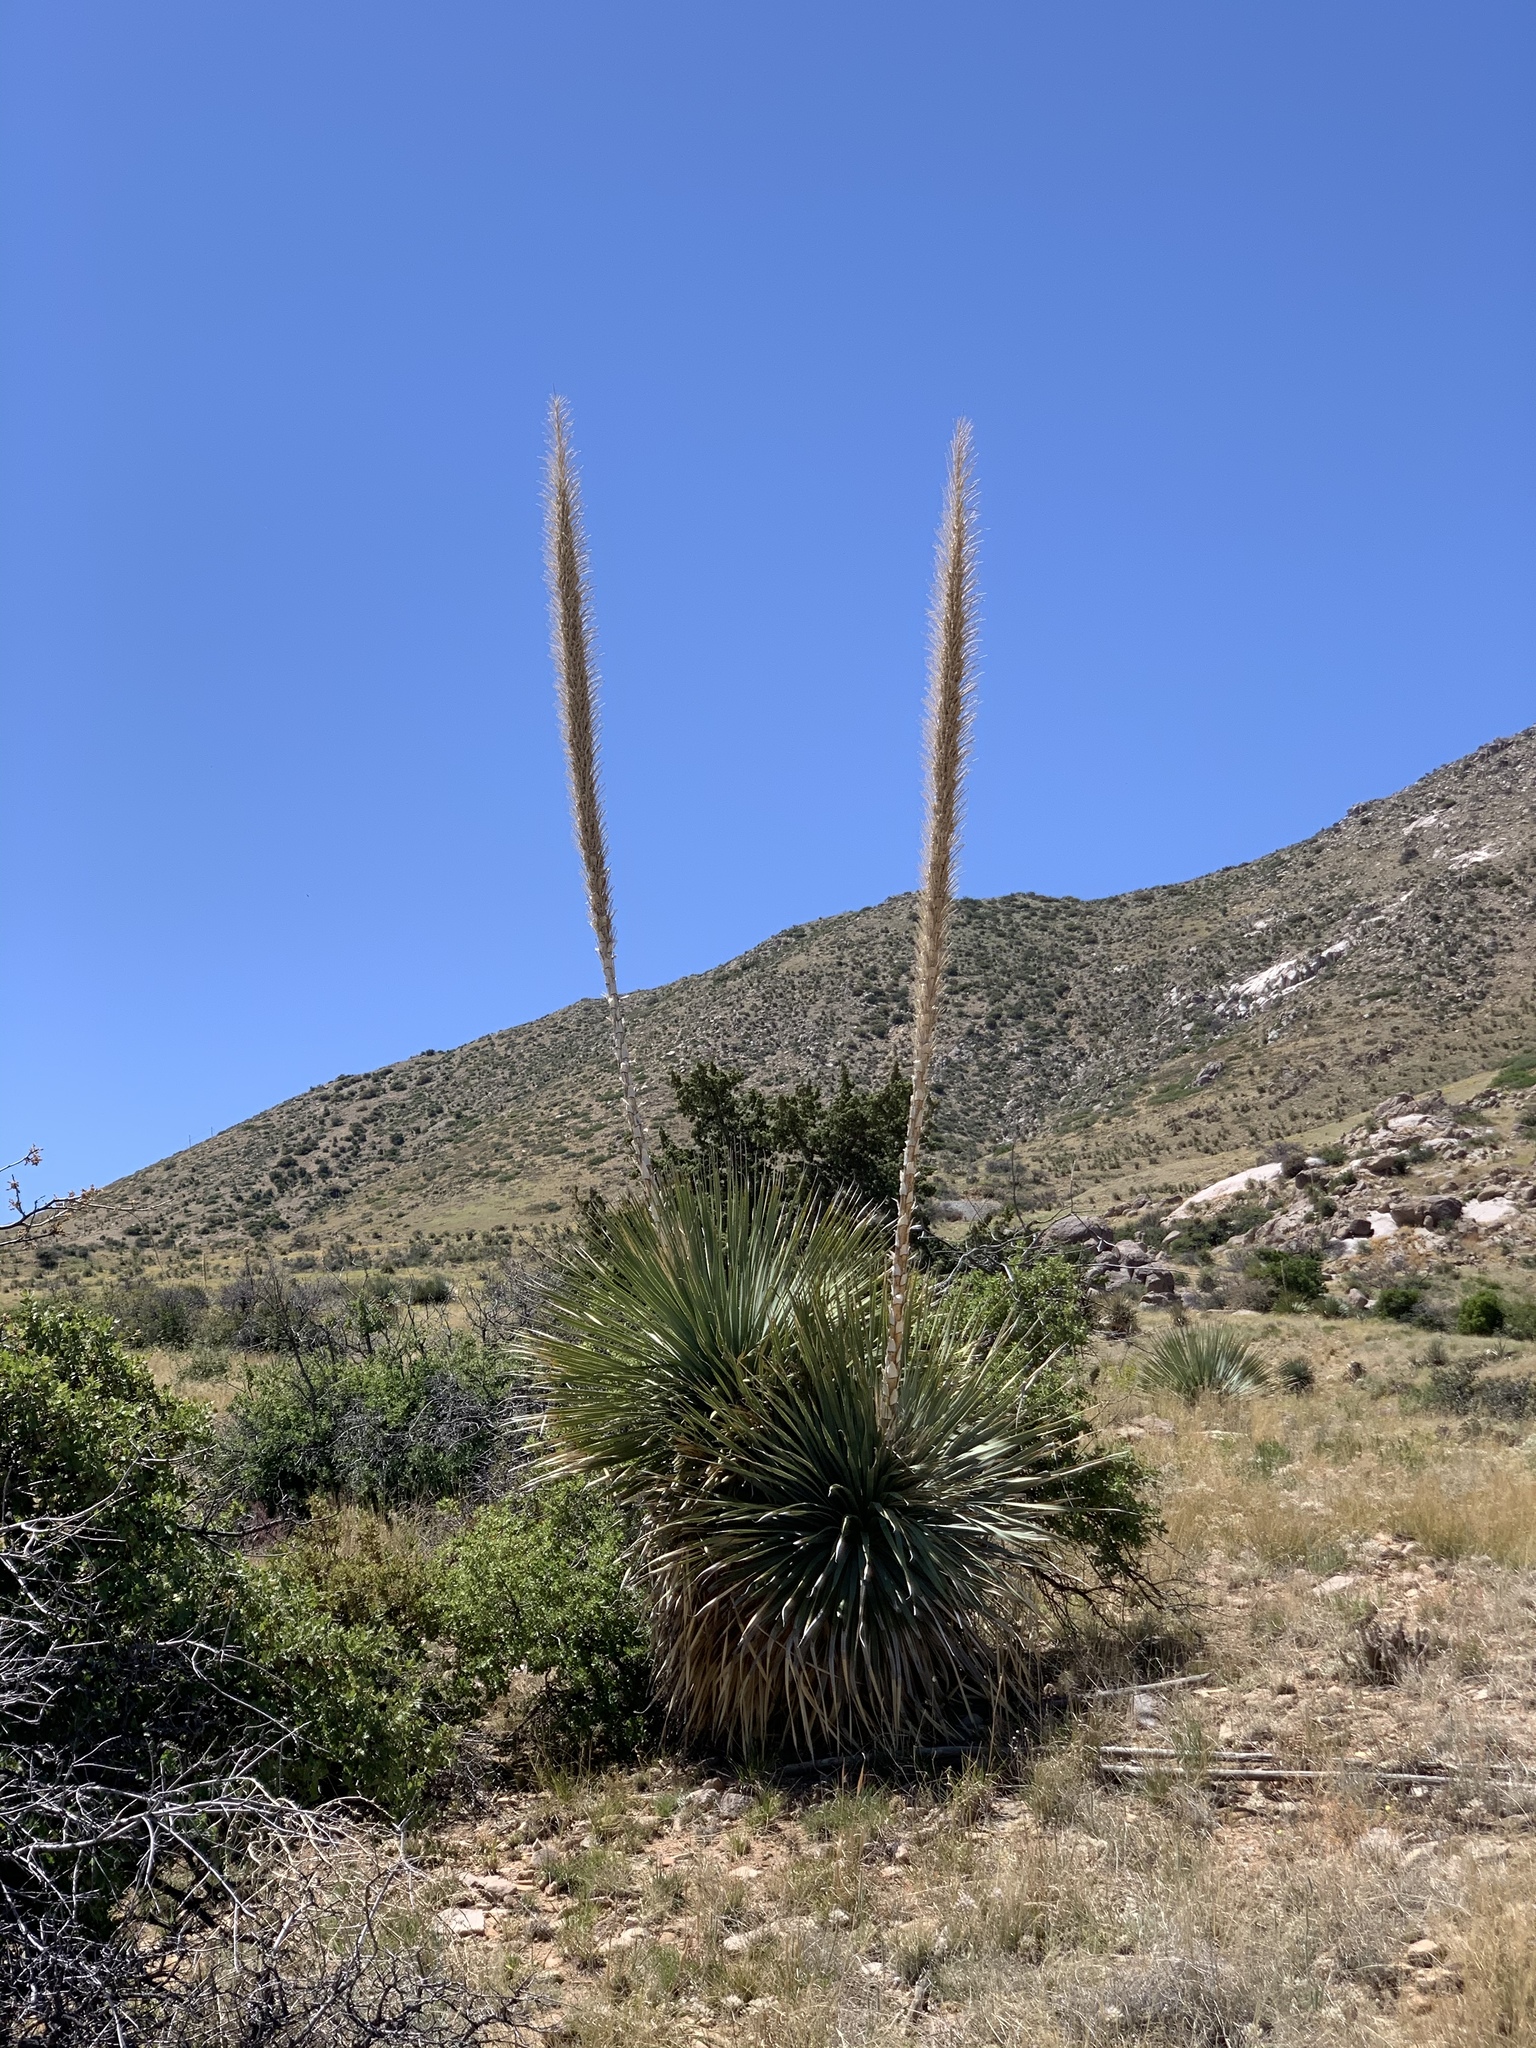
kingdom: Plantae
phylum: Tracheophyta
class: Liliopsida
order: Asparagales
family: Asparagaceae
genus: Dasylirion
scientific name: Dasylirion wheeleri
